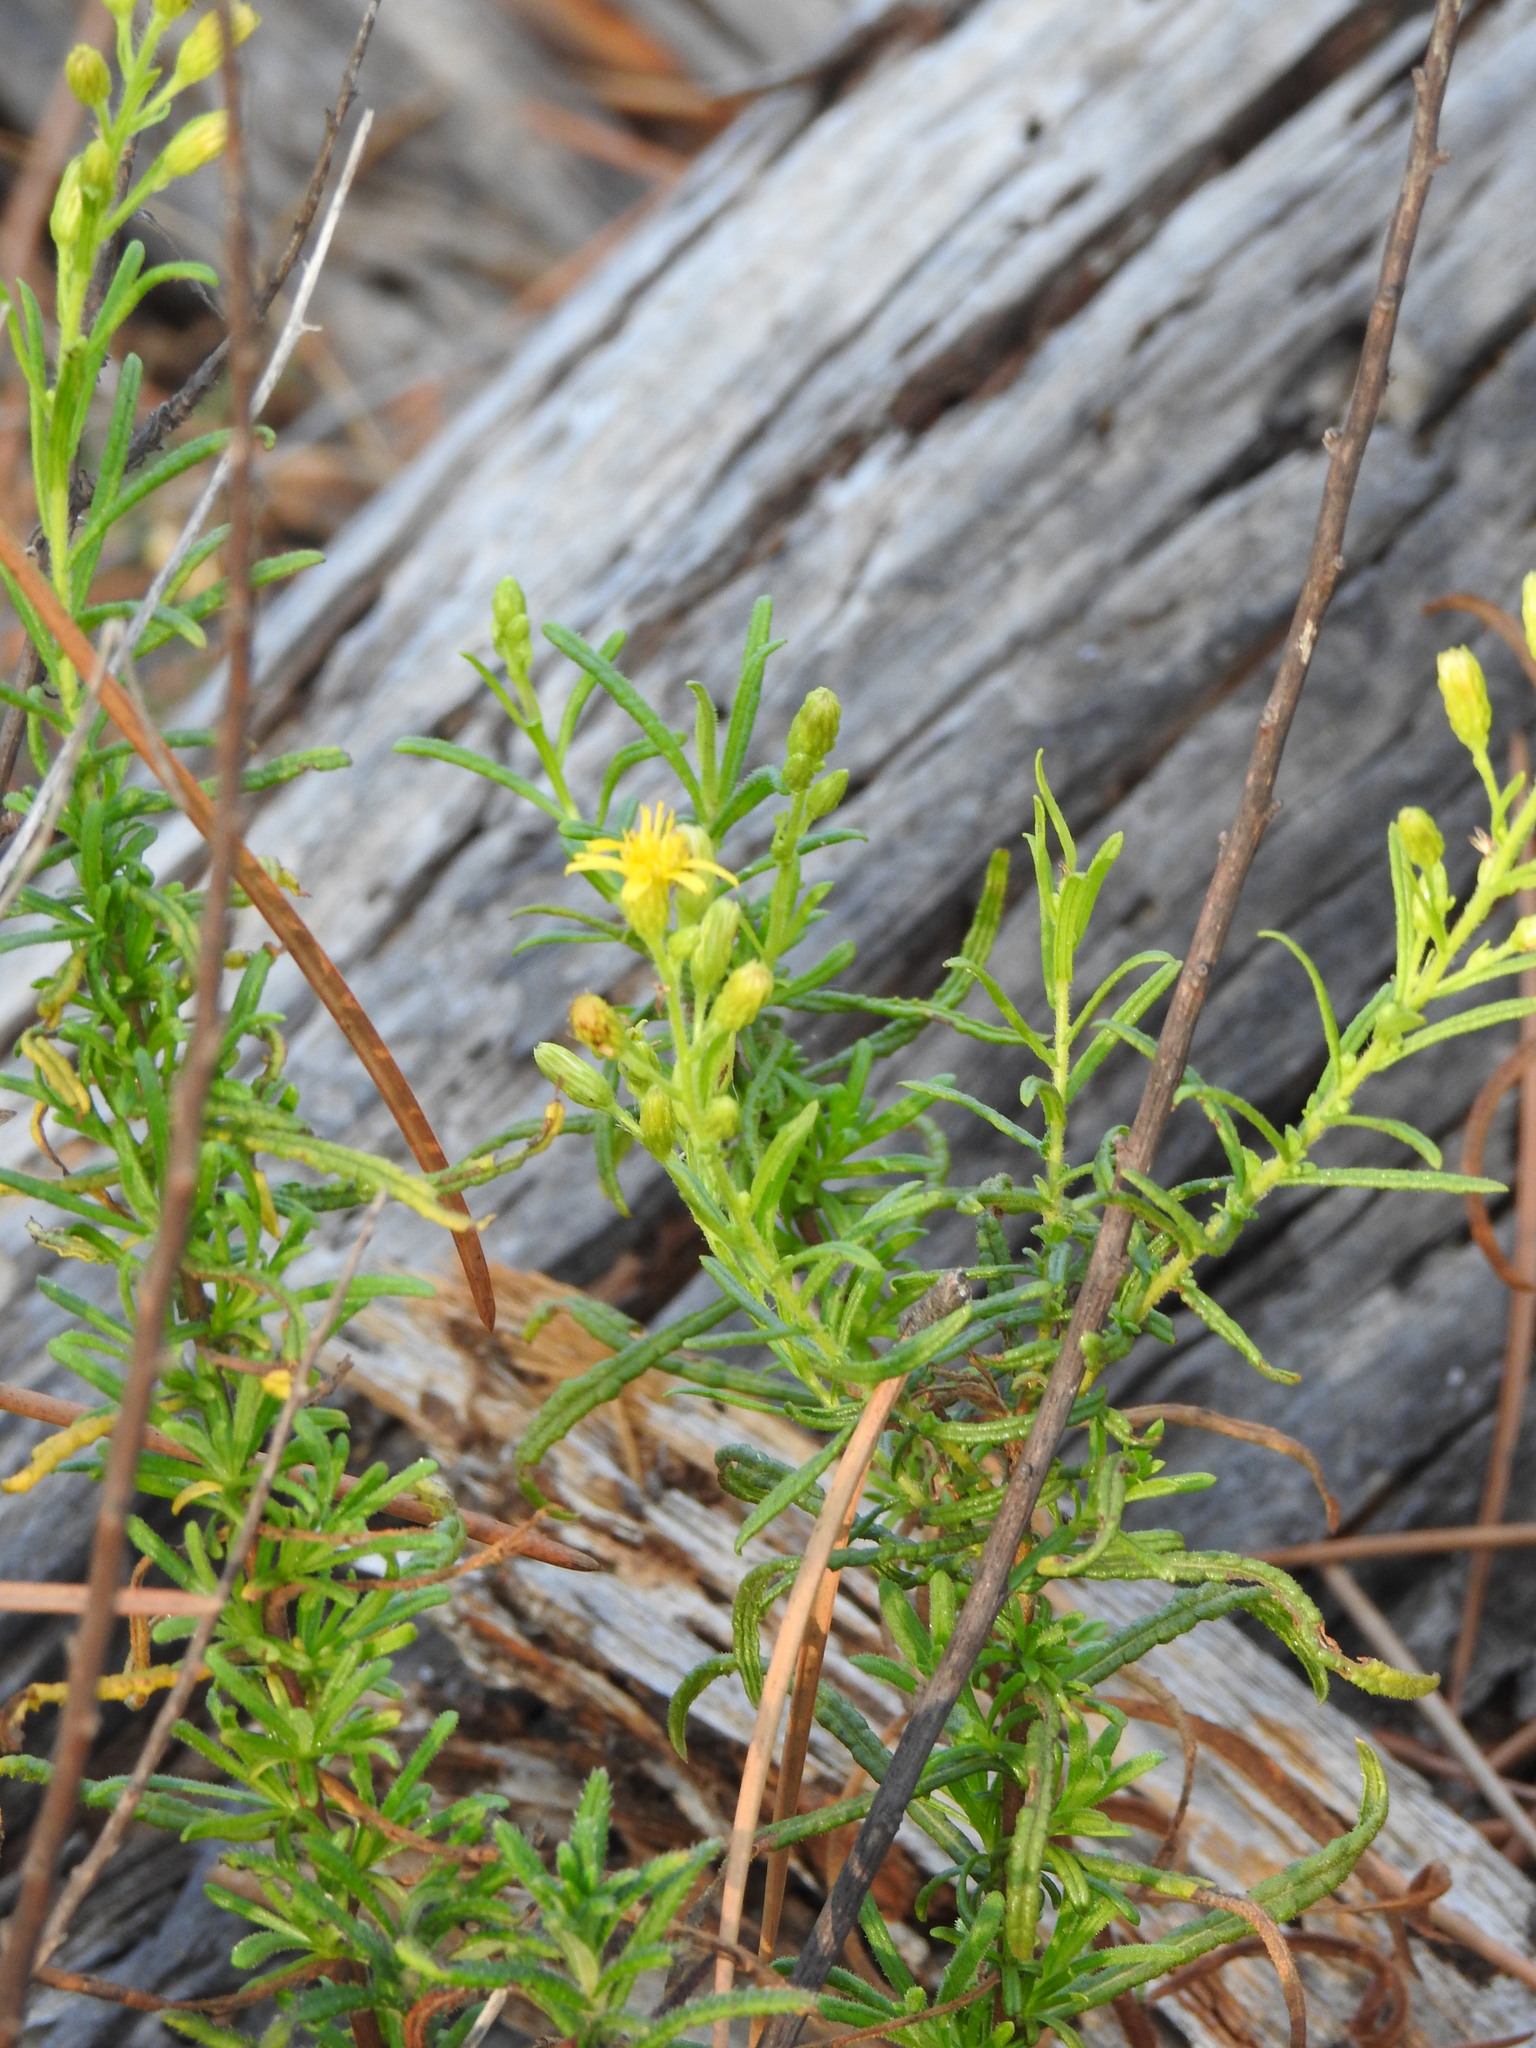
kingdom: Plantae
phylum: Tracheophyta
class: Magnoliopsida
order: Asterales
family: Asteraceae
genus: Dittrichia
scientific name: Dittrichia viscosa
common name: Woody fleabane
